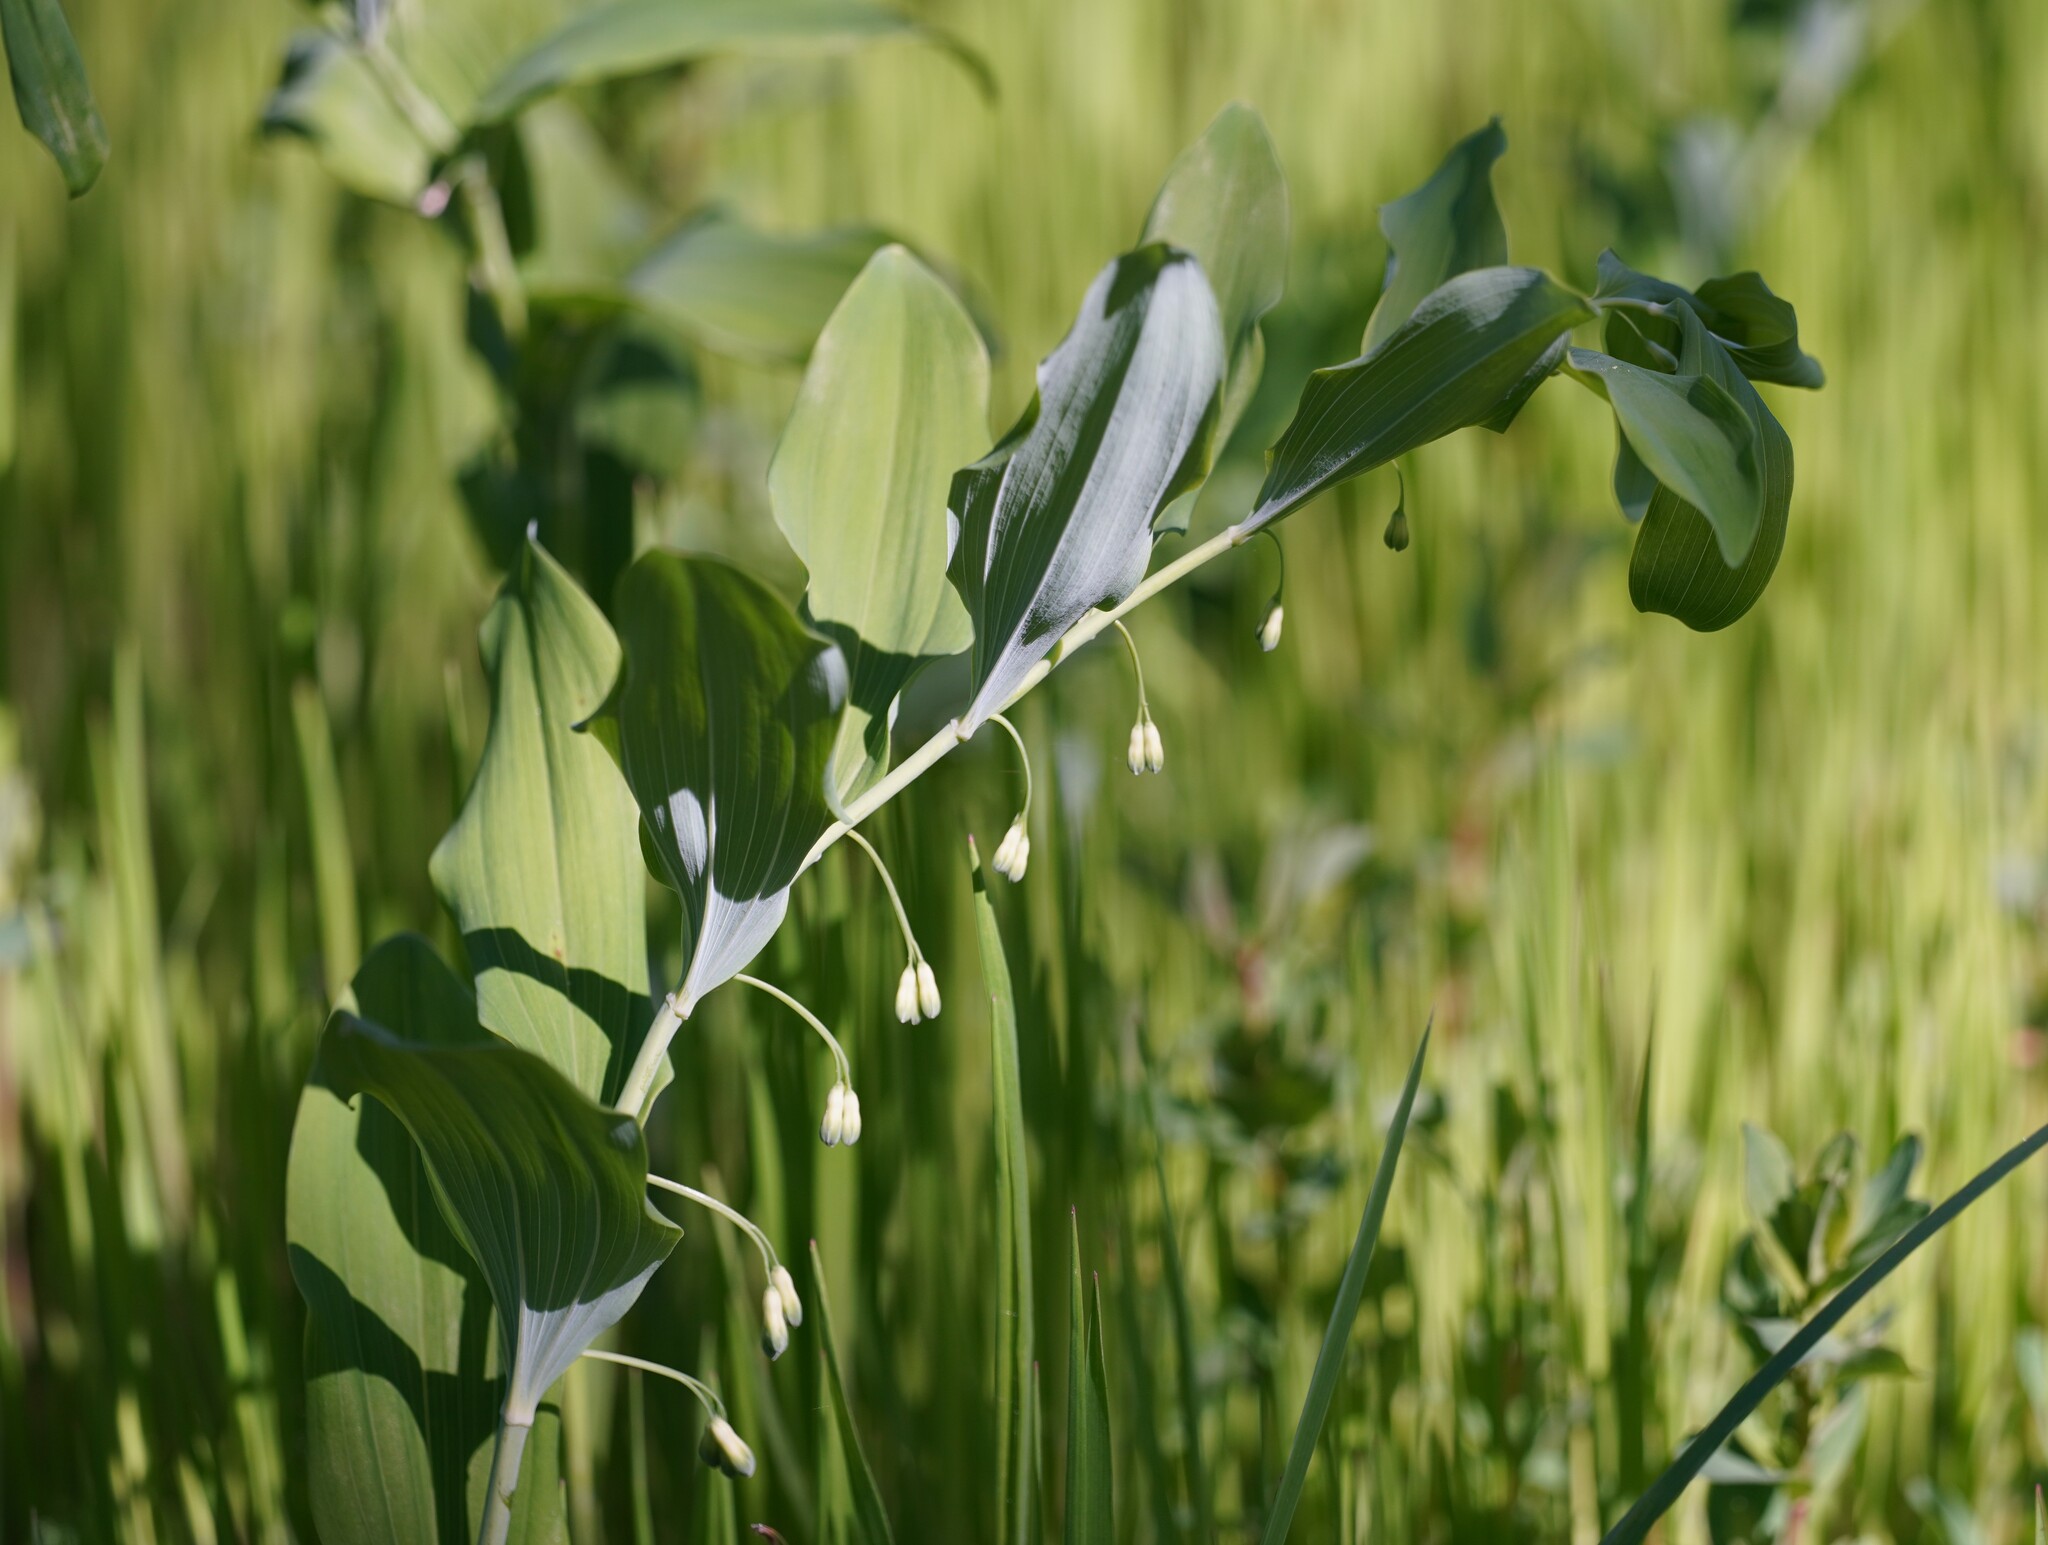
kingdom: Plantae
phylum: Tracheophyta
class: Liliopsida
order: Asparagales
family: Asparagaceae
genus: Polygonatum
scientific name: Polygonatum multiflorum
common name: Solomon's-seal
